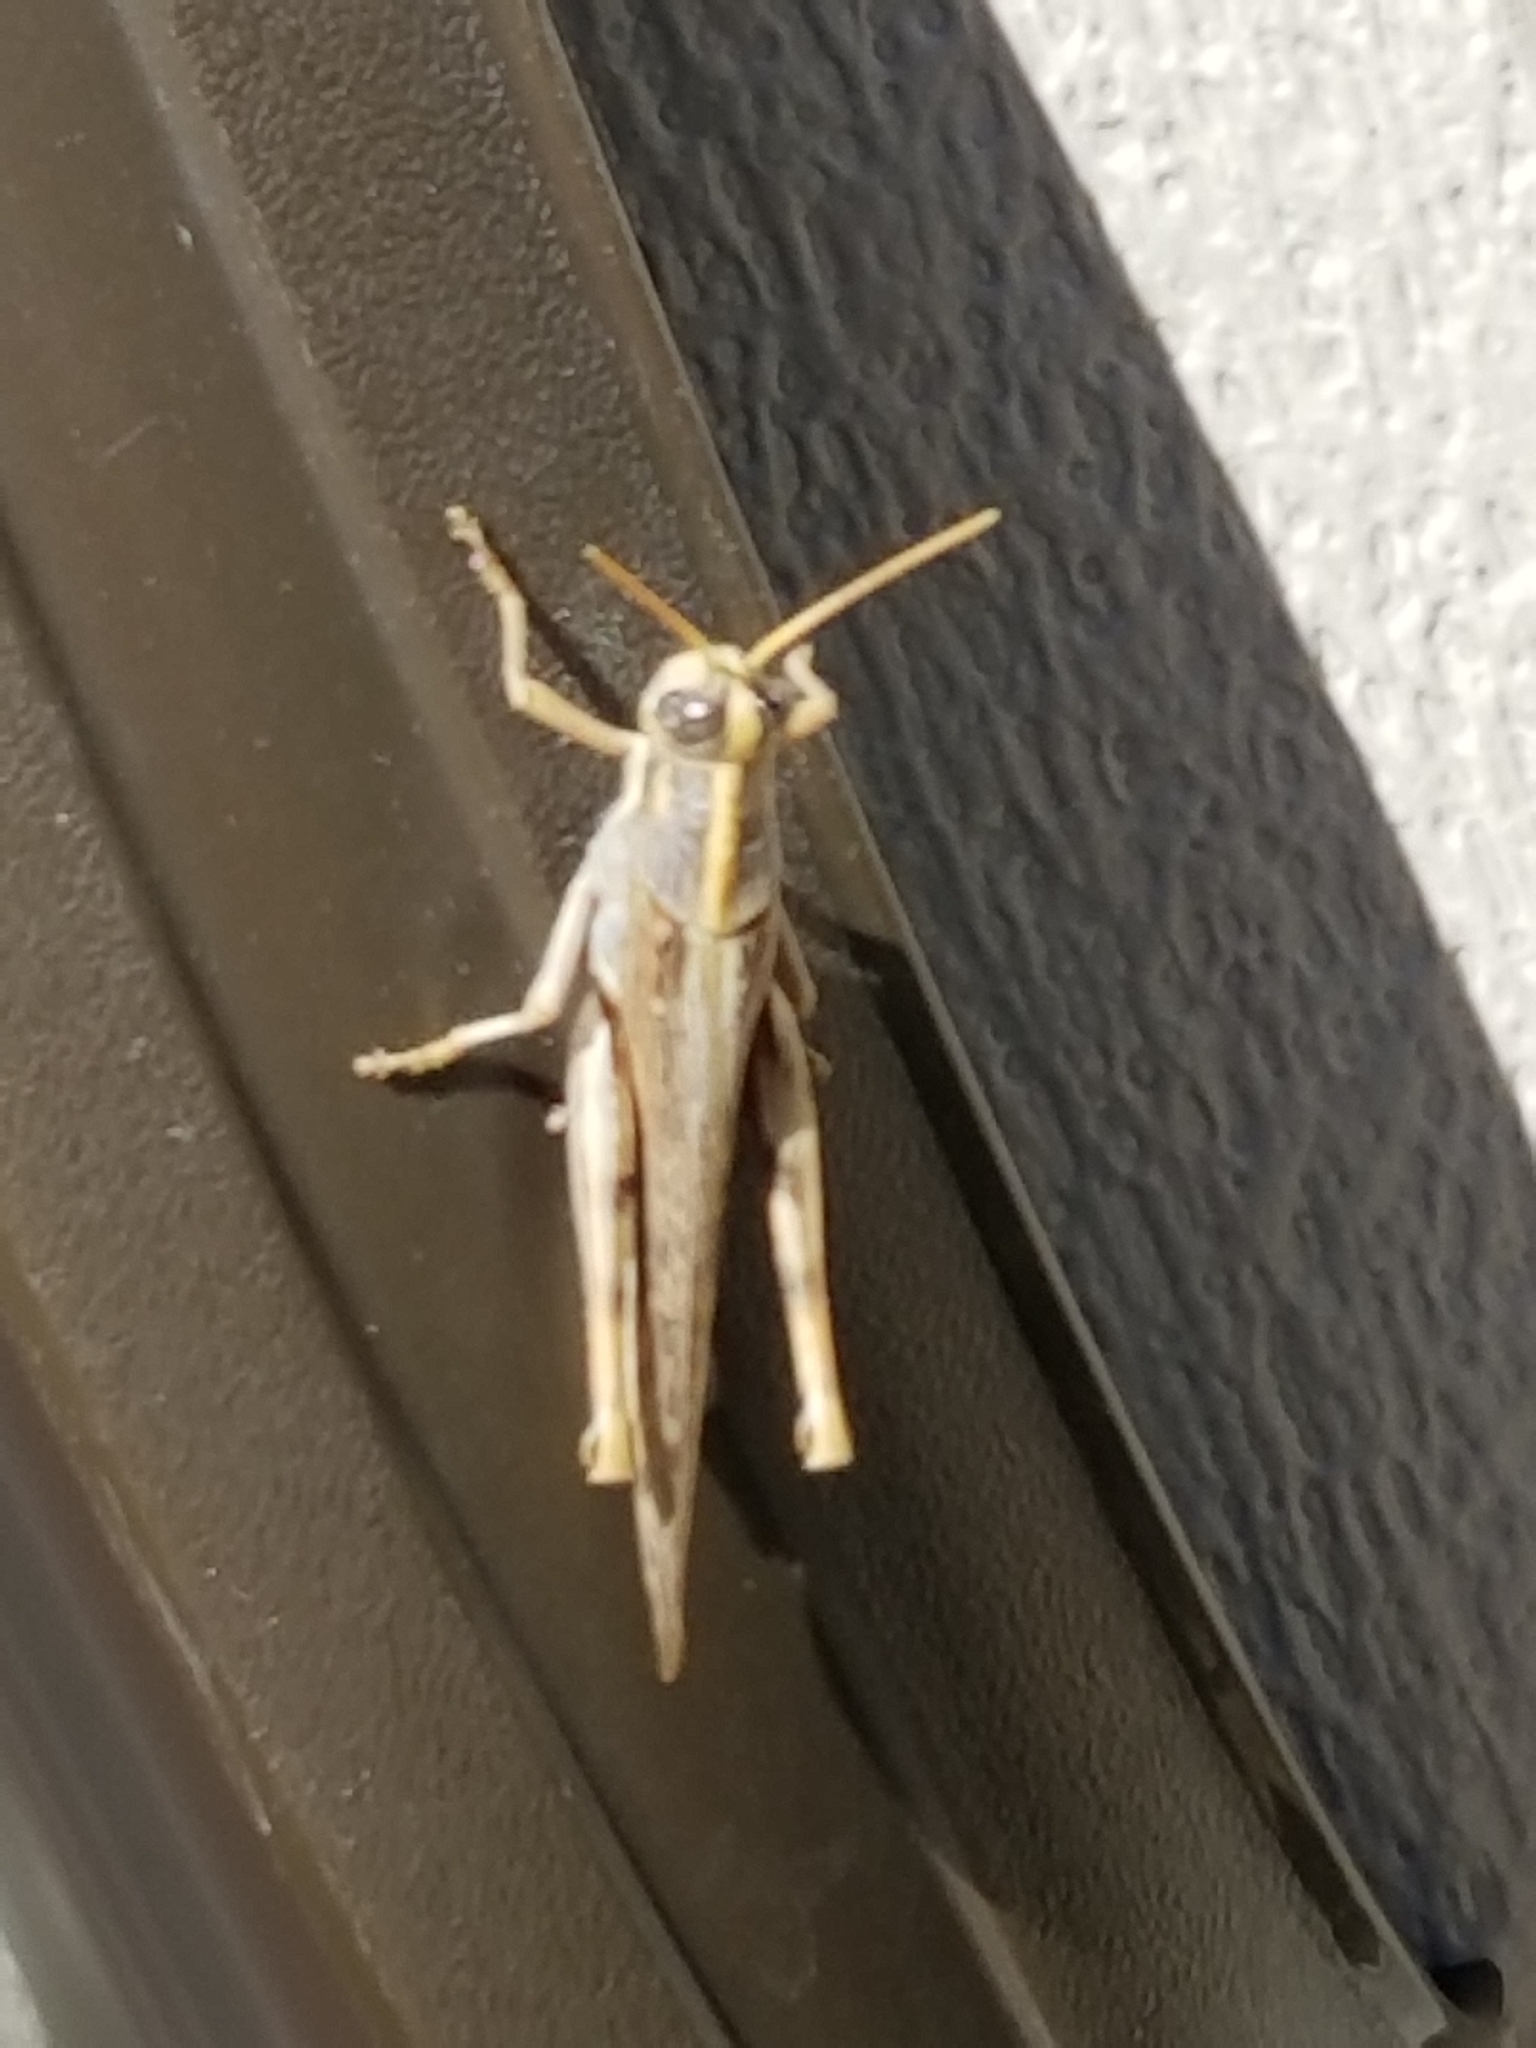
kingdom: Animalia
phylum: Arthropoda
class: Insecta
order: Orthoptera
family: Acrididae
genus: Schistocerca
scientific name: Schistocerca nitens
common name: Vagrant grasshopper
